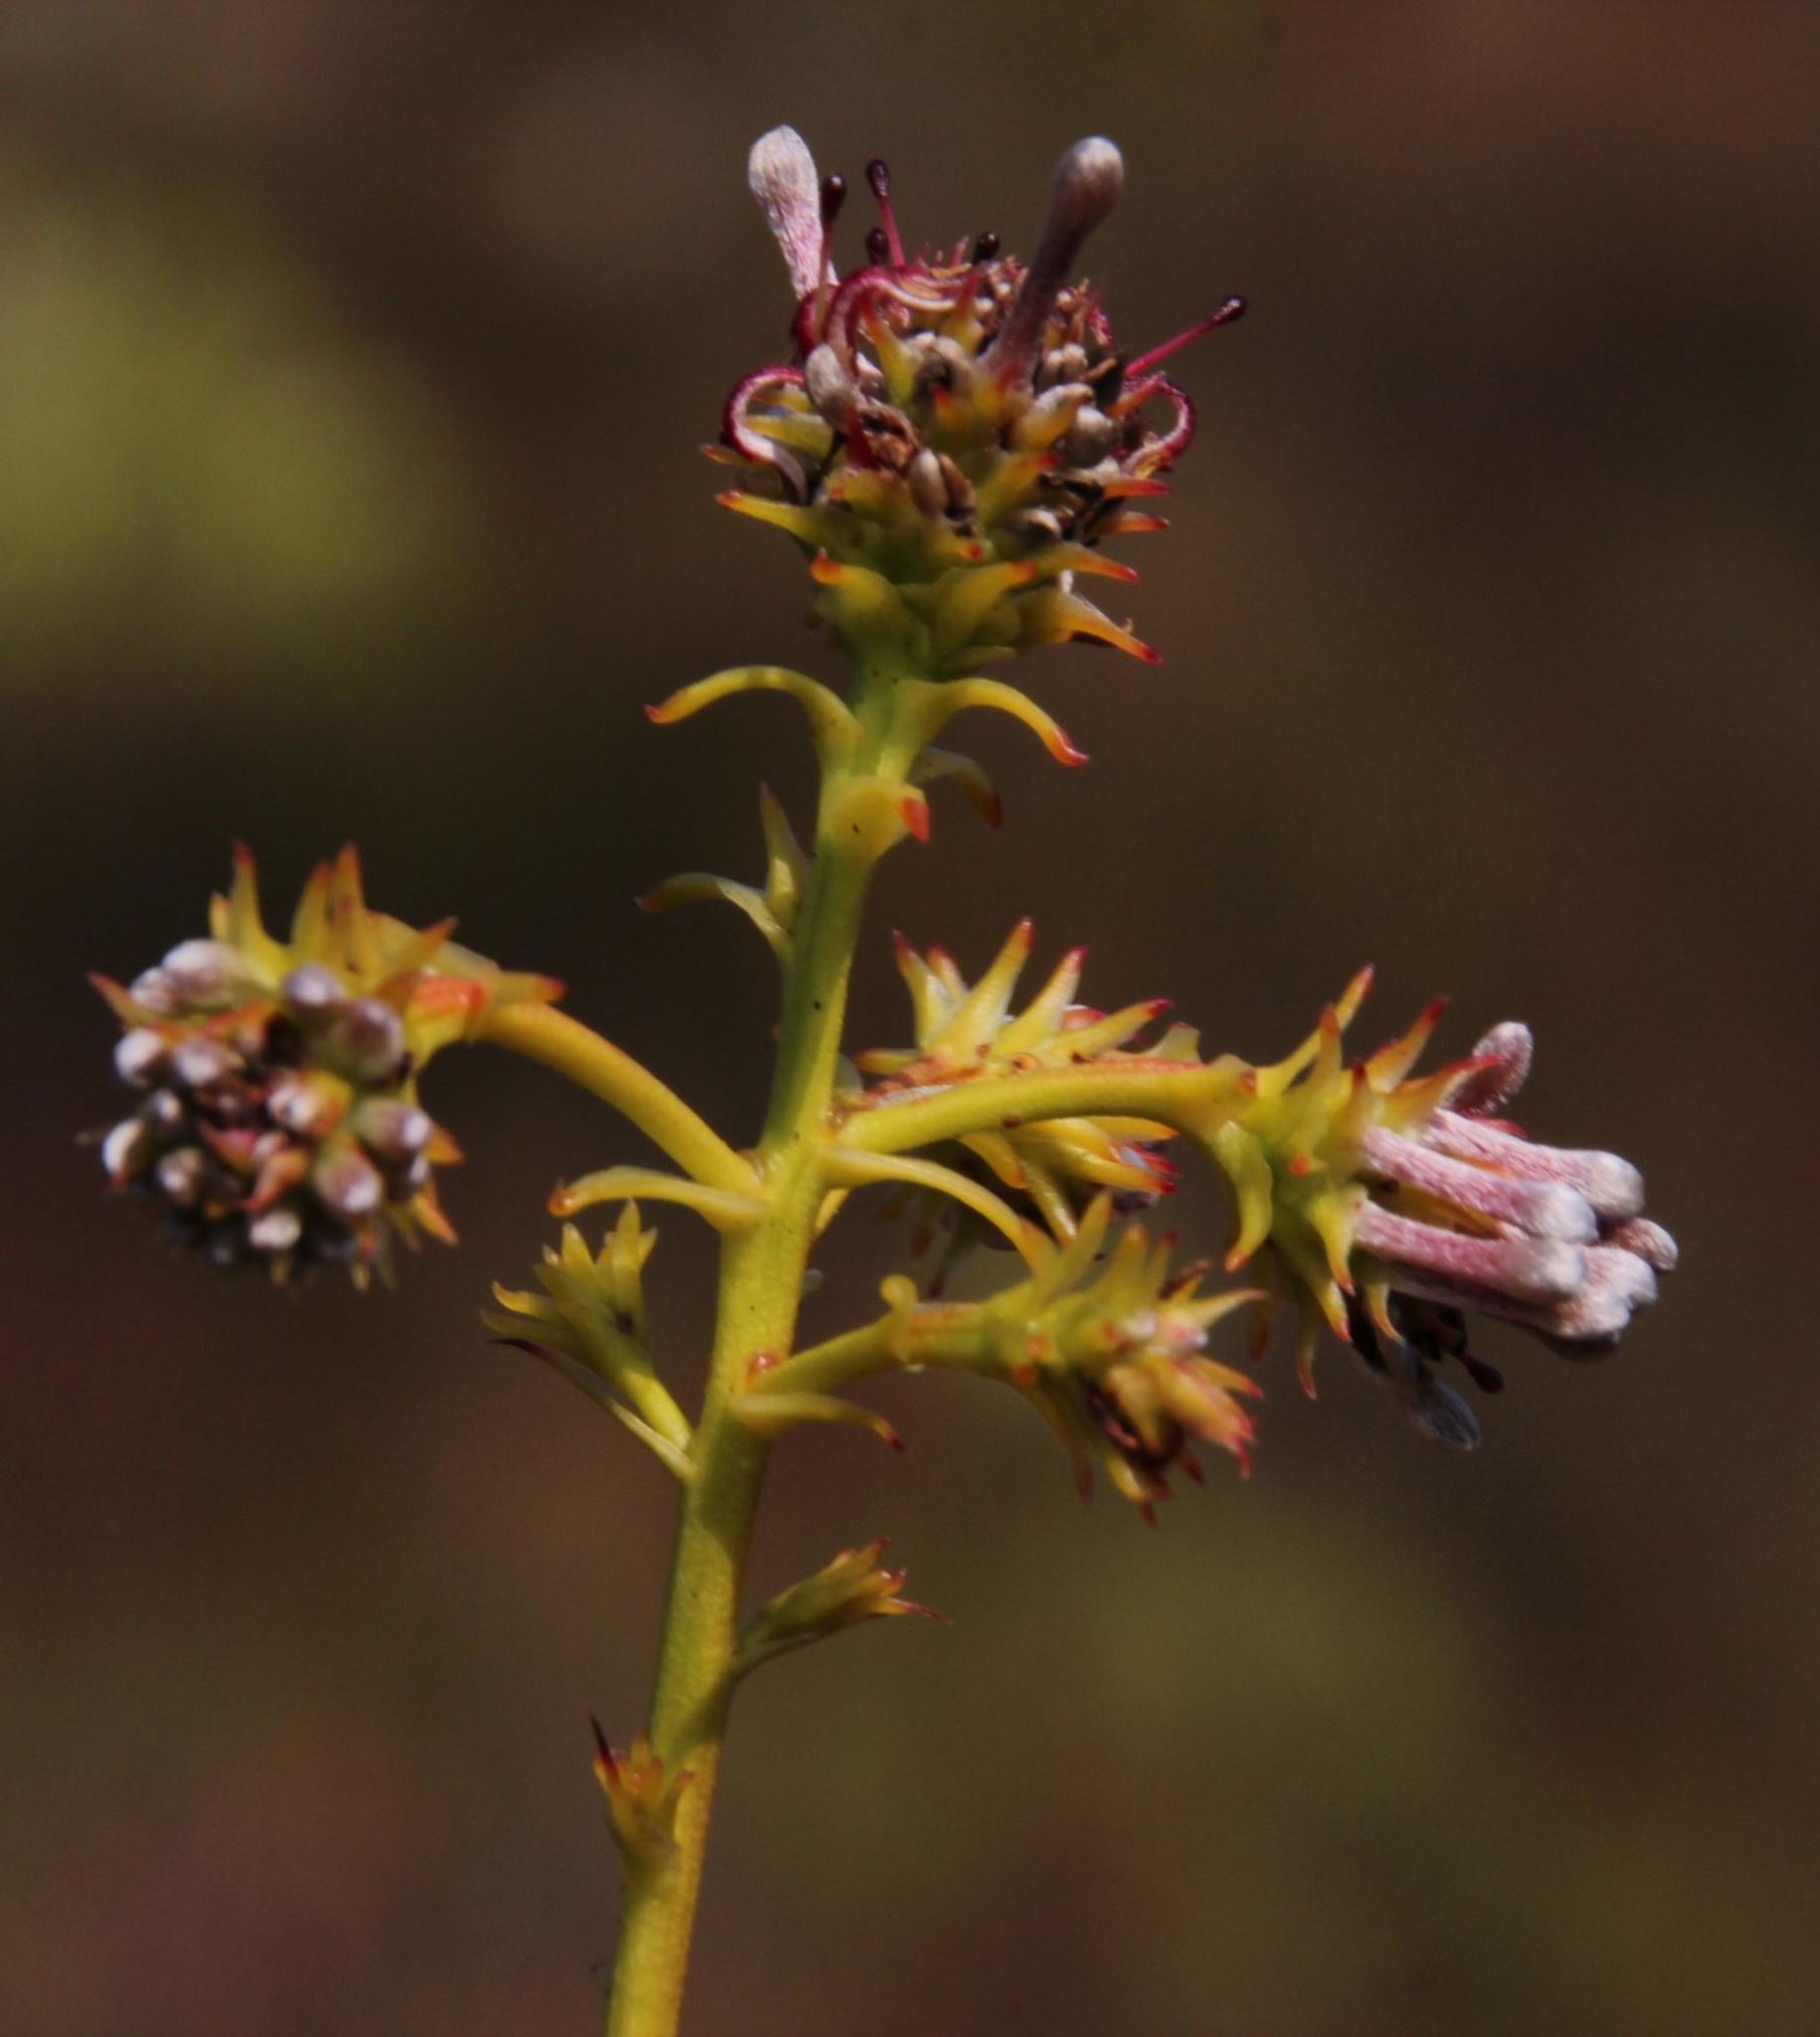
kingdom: Plantae
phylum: Tracheophyta
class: Magnoliopsida
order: Proteales
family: Proteaceae
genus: Serruria
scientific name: Serruria elongata
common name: Long-stalk spiderhead
